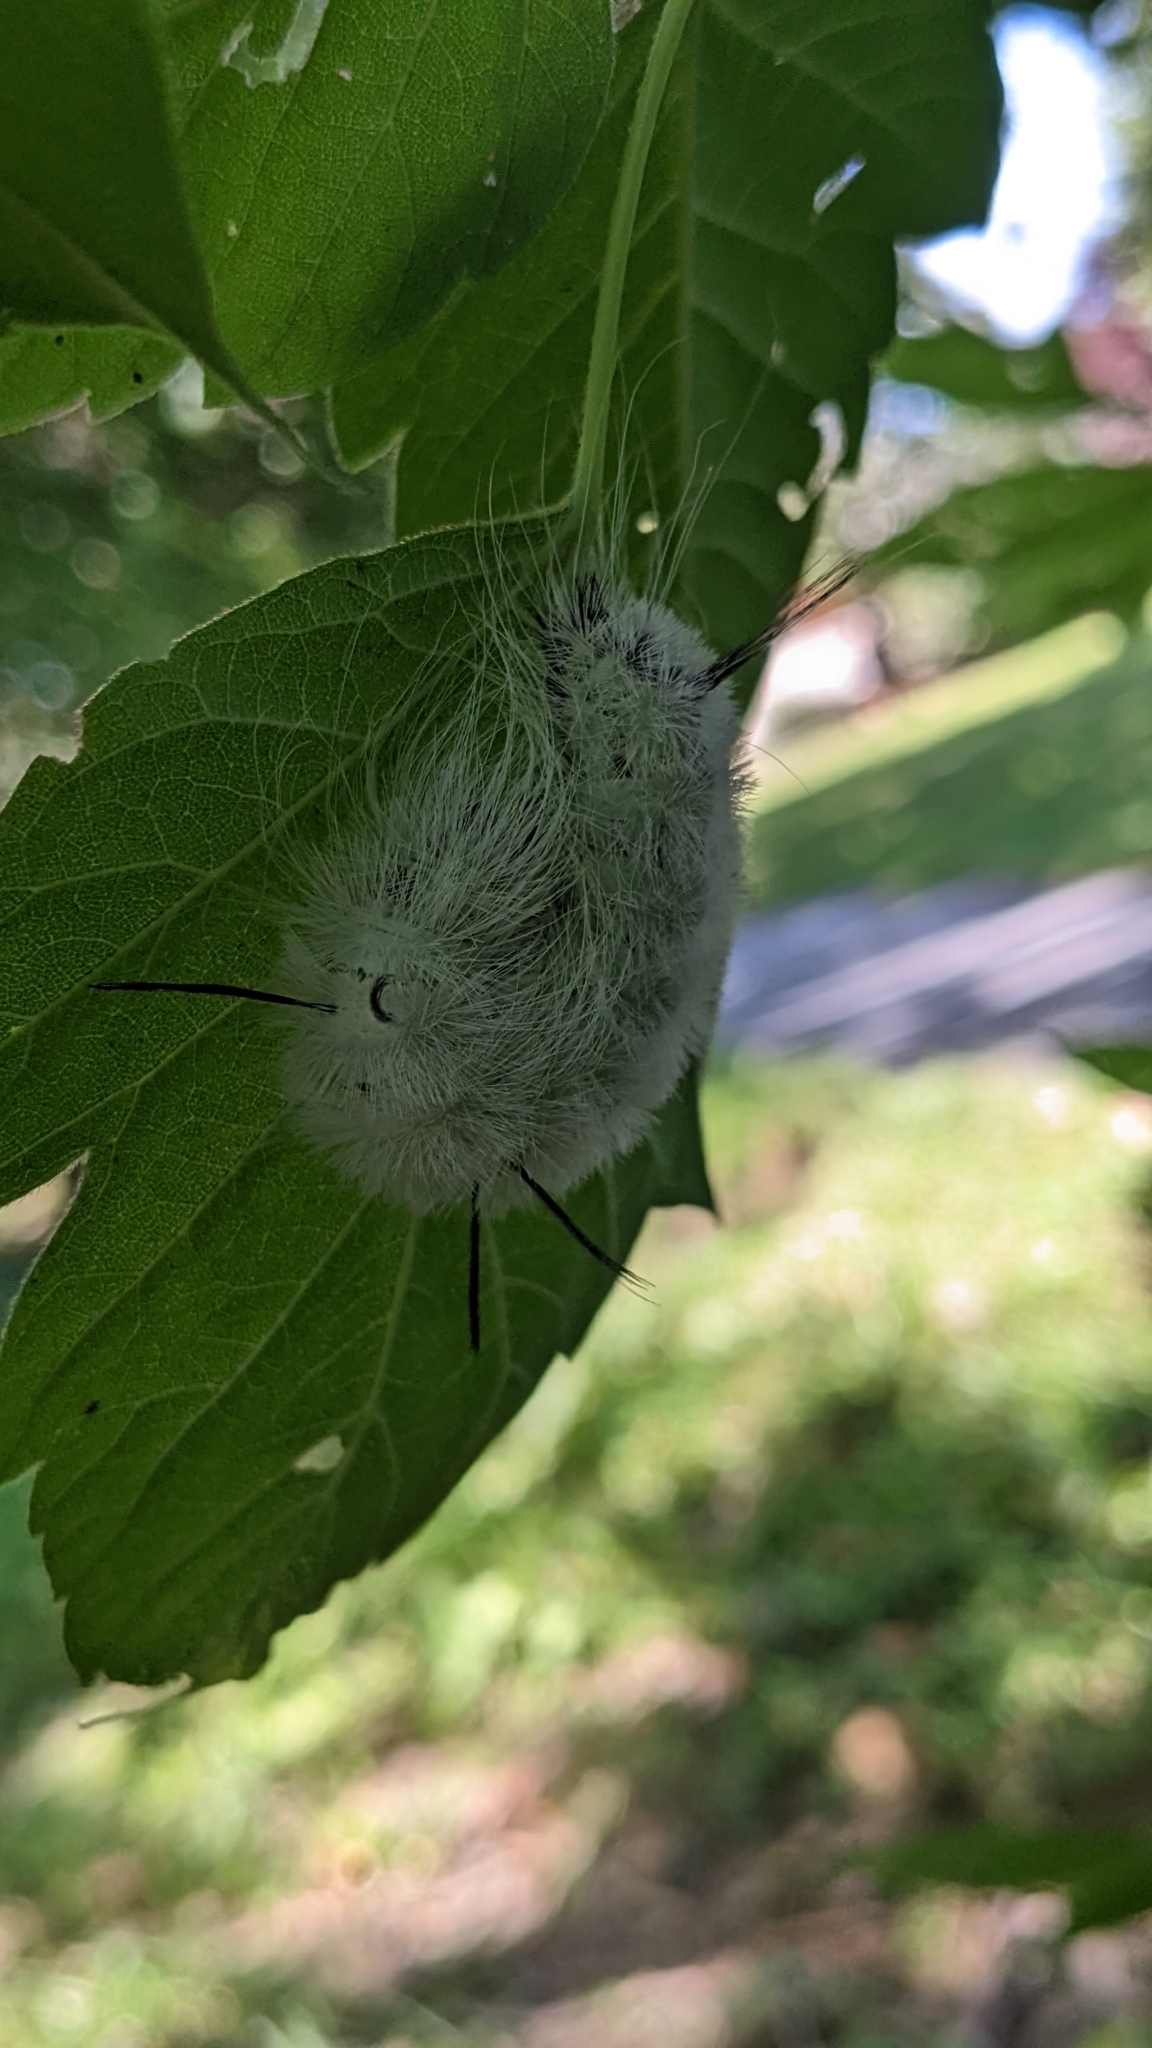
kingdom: Animalia
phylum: Arthropoda
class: Insecta
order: Lepidoptera
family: Noctuidae
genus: Acronicta
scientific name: Acronicta americana
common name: American dagger
